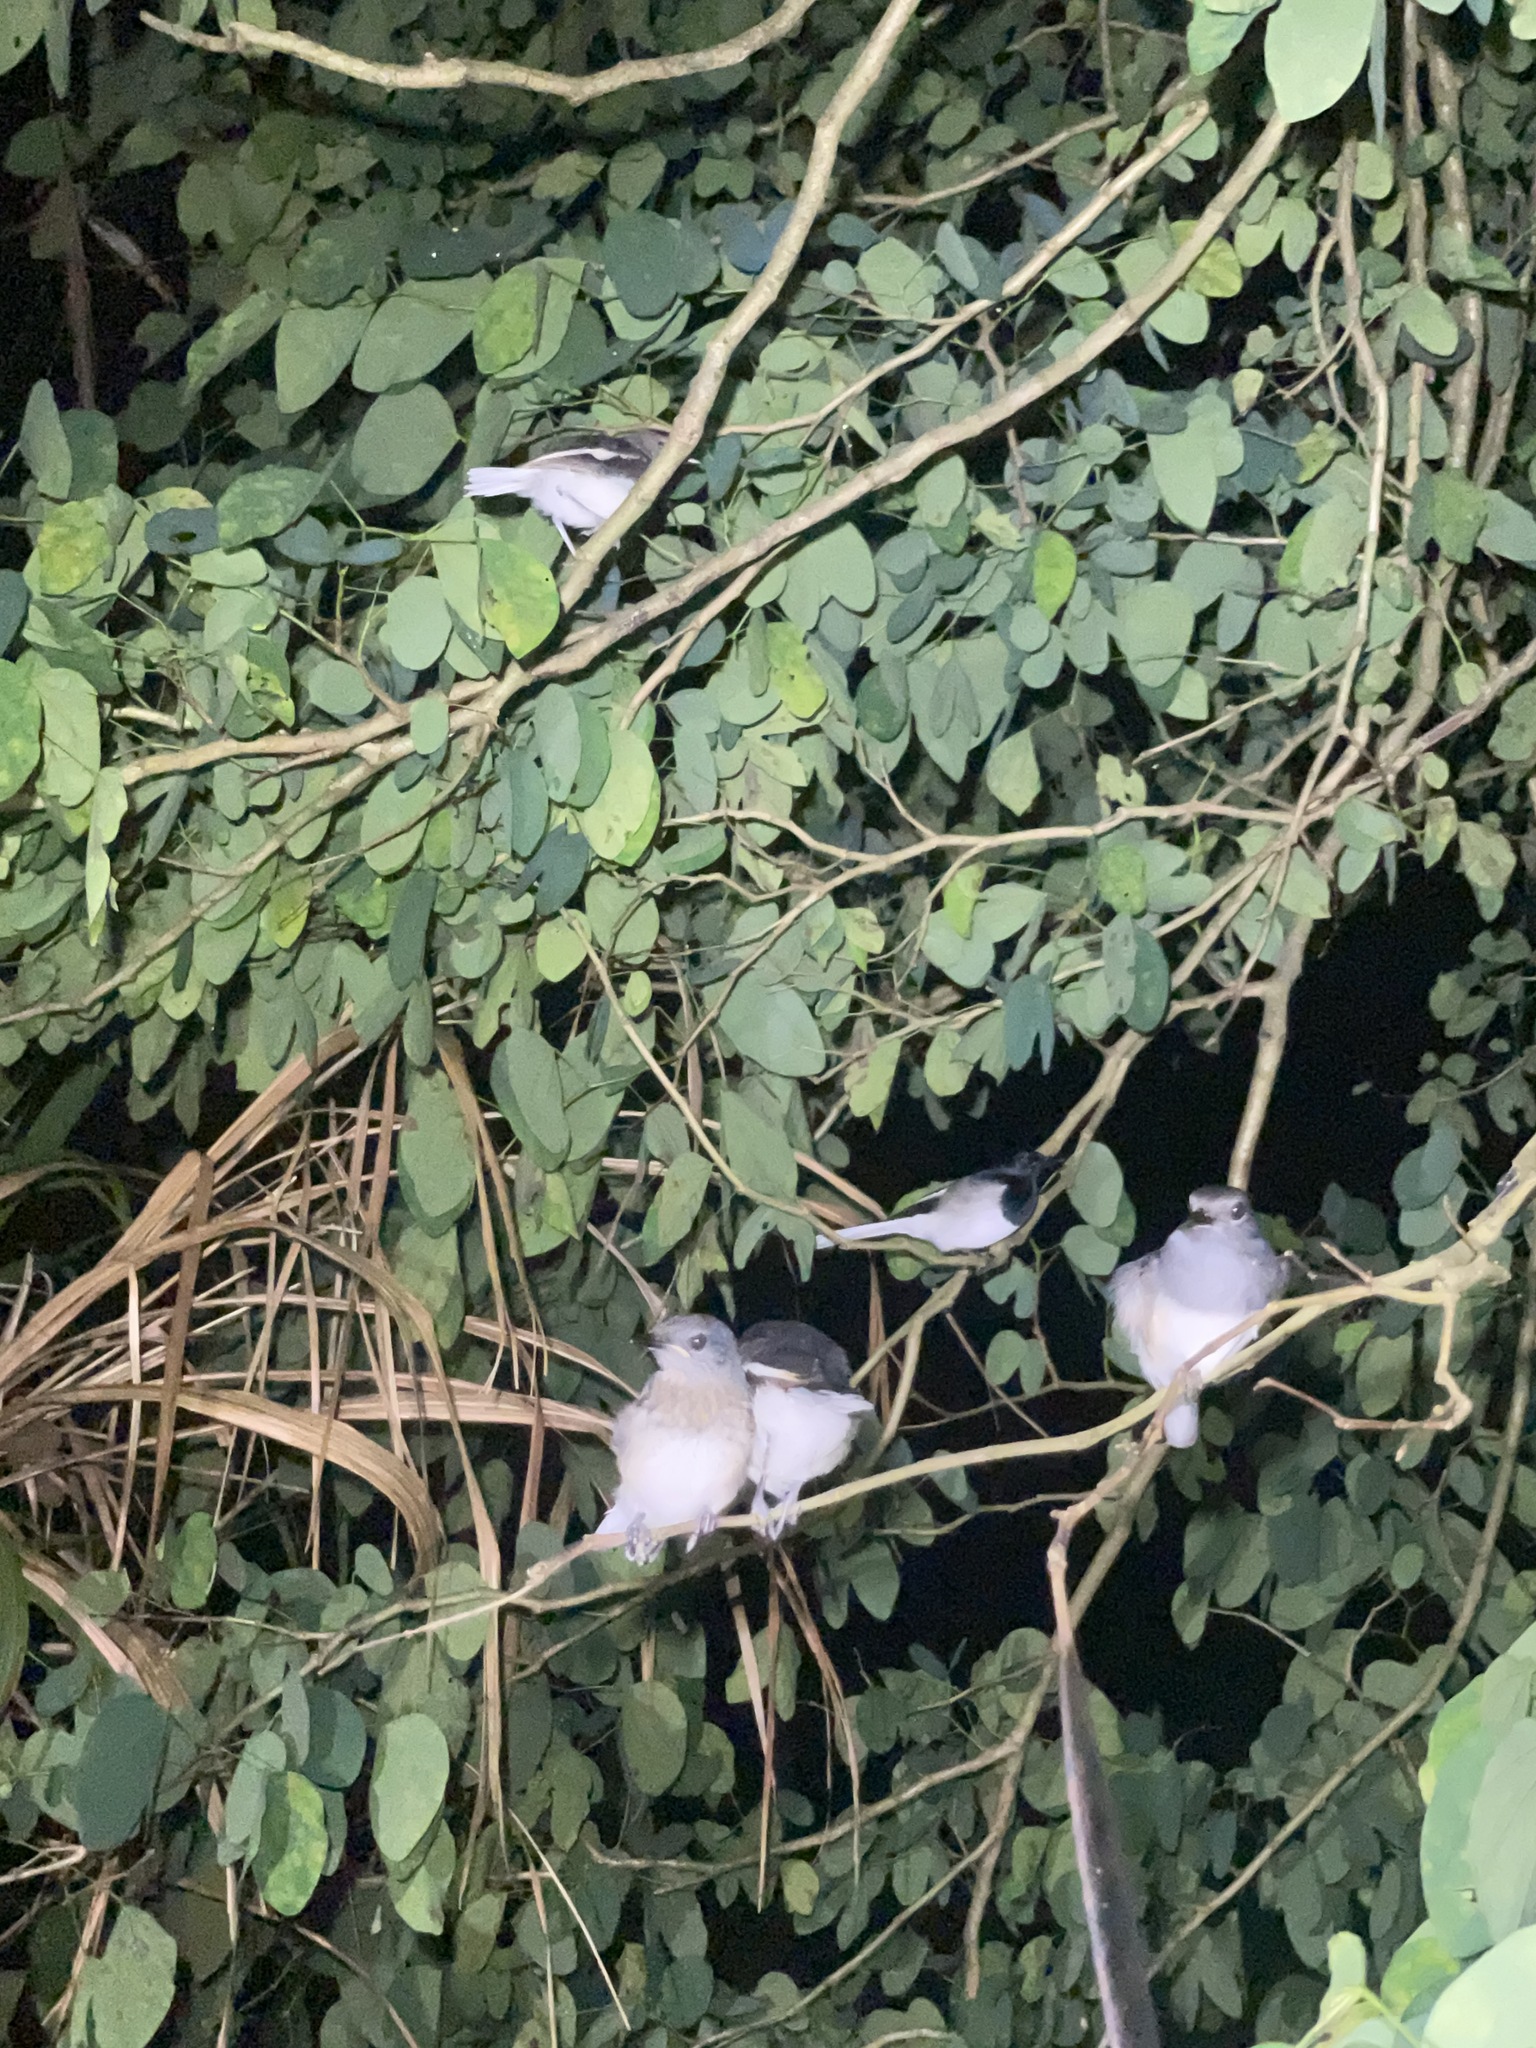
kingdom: Animalia
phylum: Chordata
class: Aves
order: Passeriformes
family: Muscicapidae
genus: Copsychus
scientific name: Copsychus saularis
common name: Oriental magpie-robin
